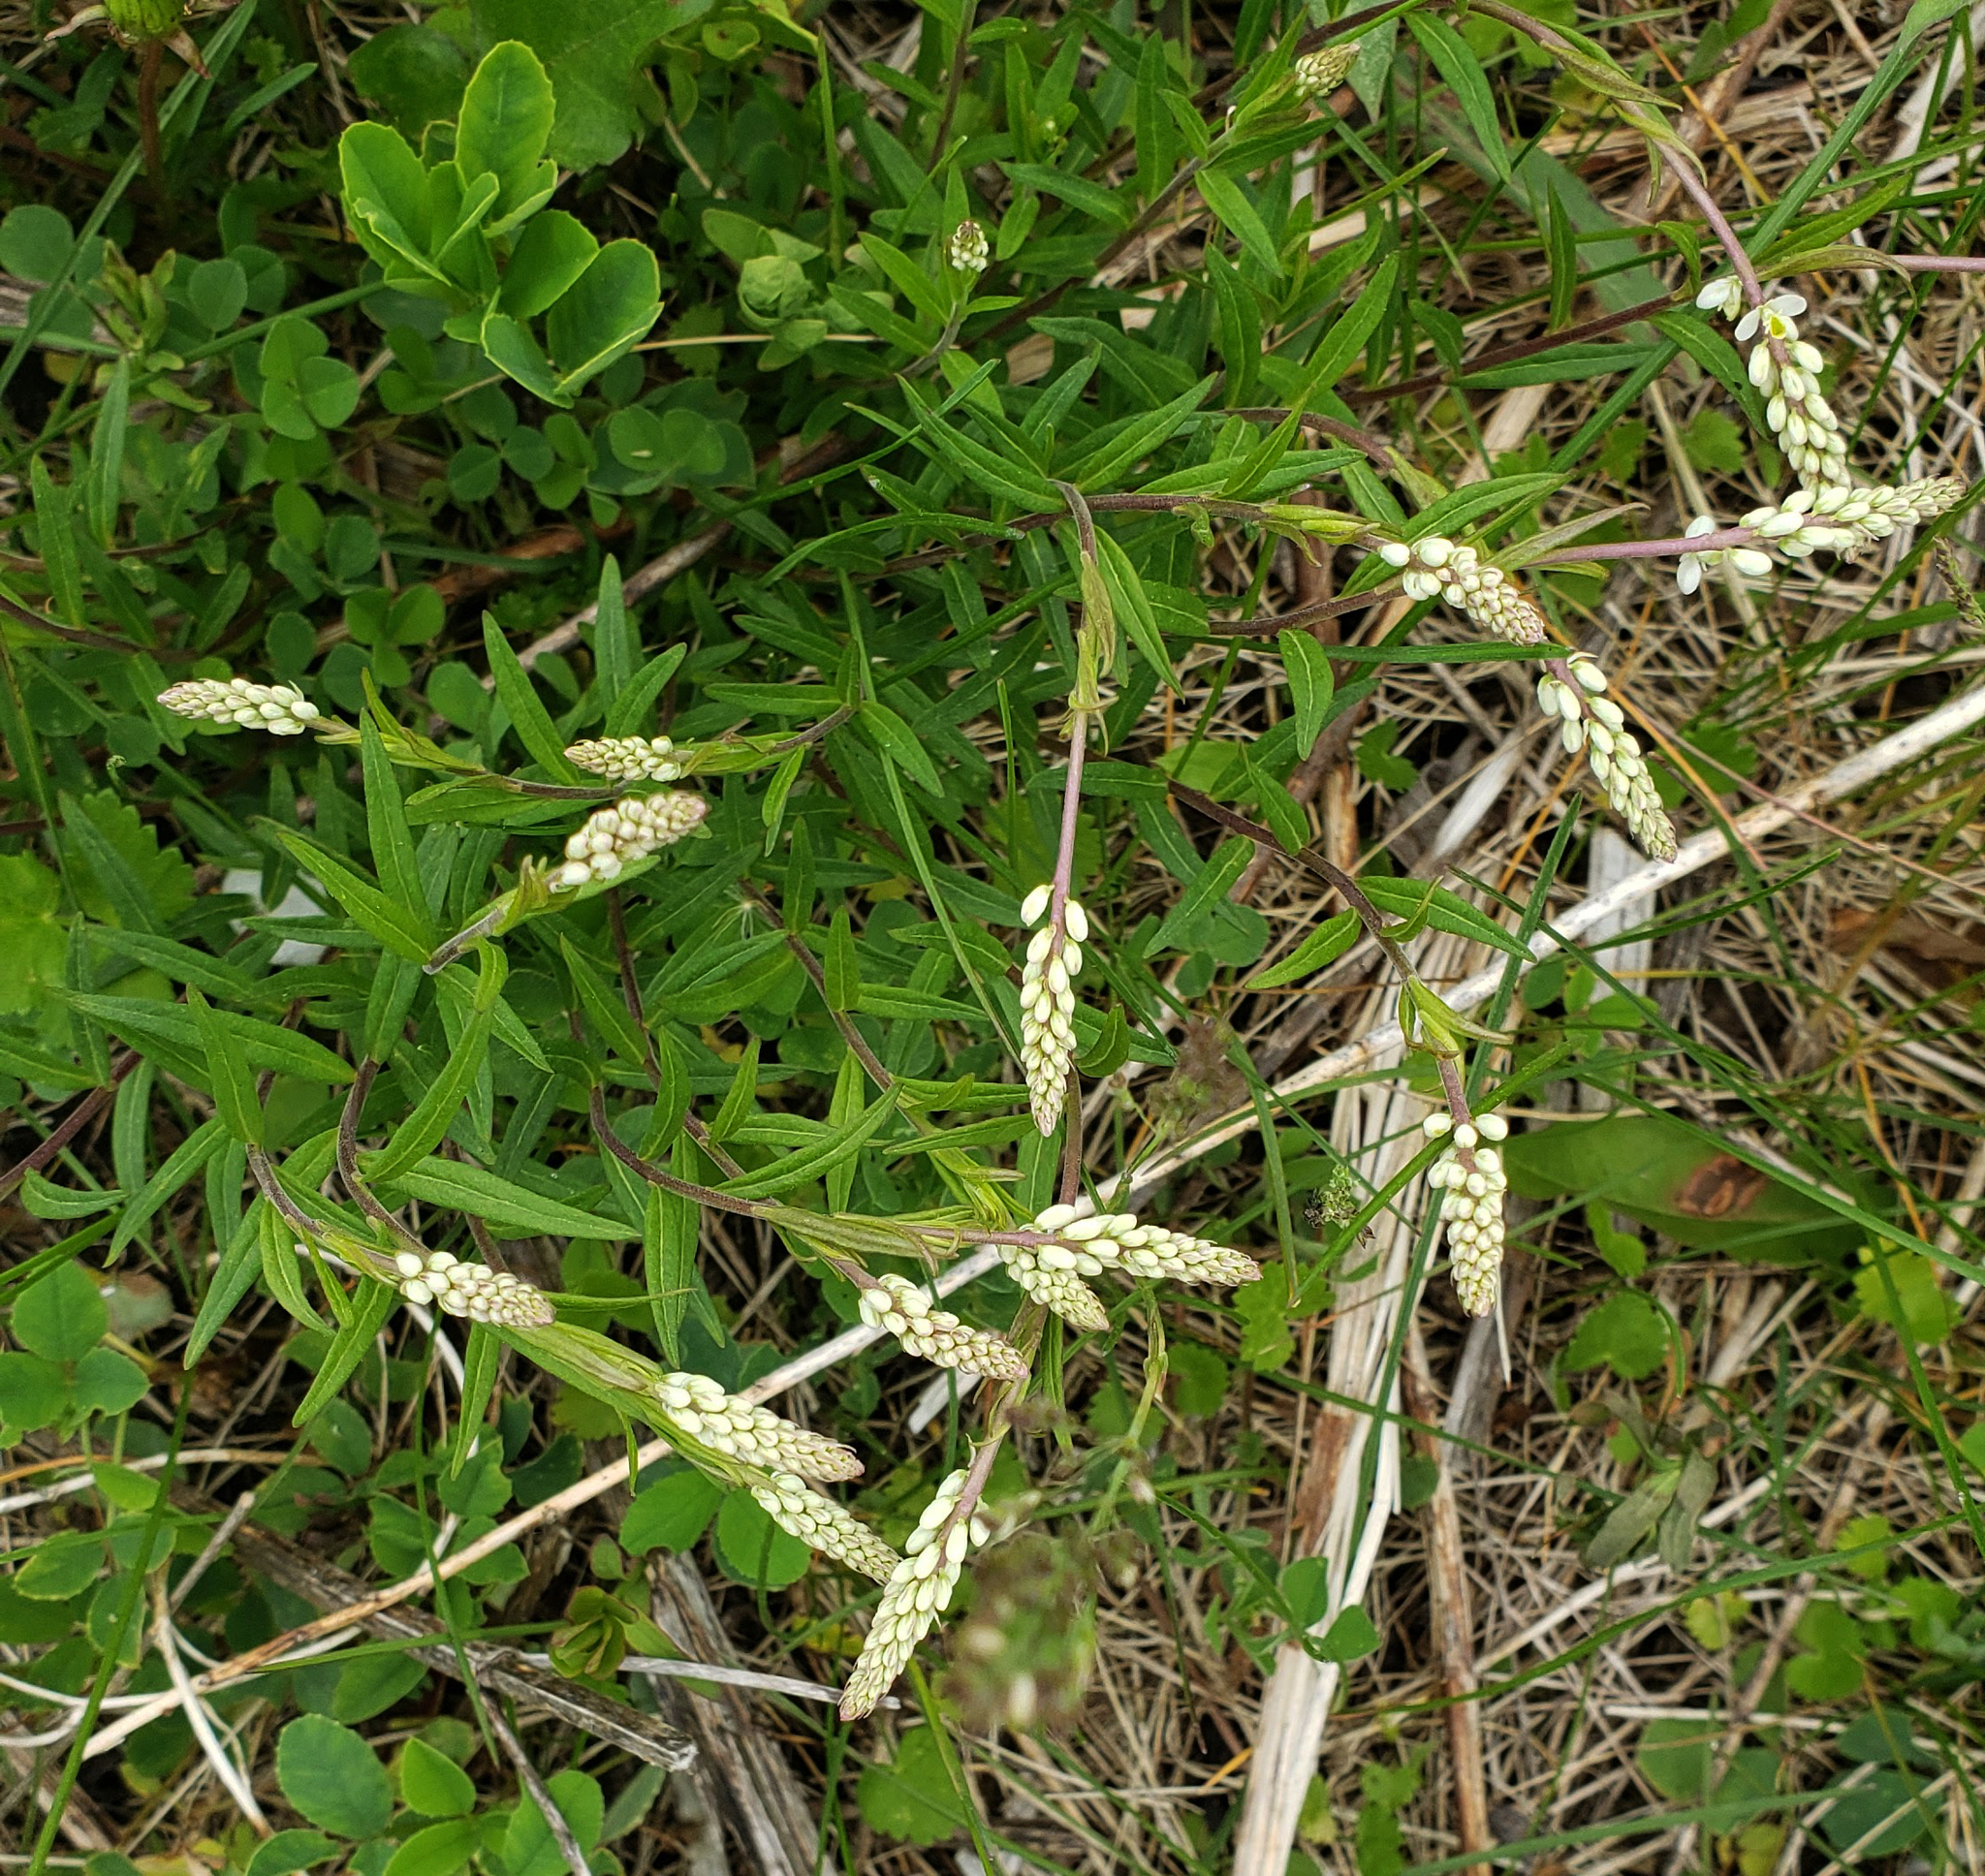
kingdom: Plantae
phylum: Tracheophyta
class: Magnoliopsida
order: Fabales
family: Polygalaceae
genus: Polygala
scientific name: Polygala senega
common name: Seneca snakeroot
